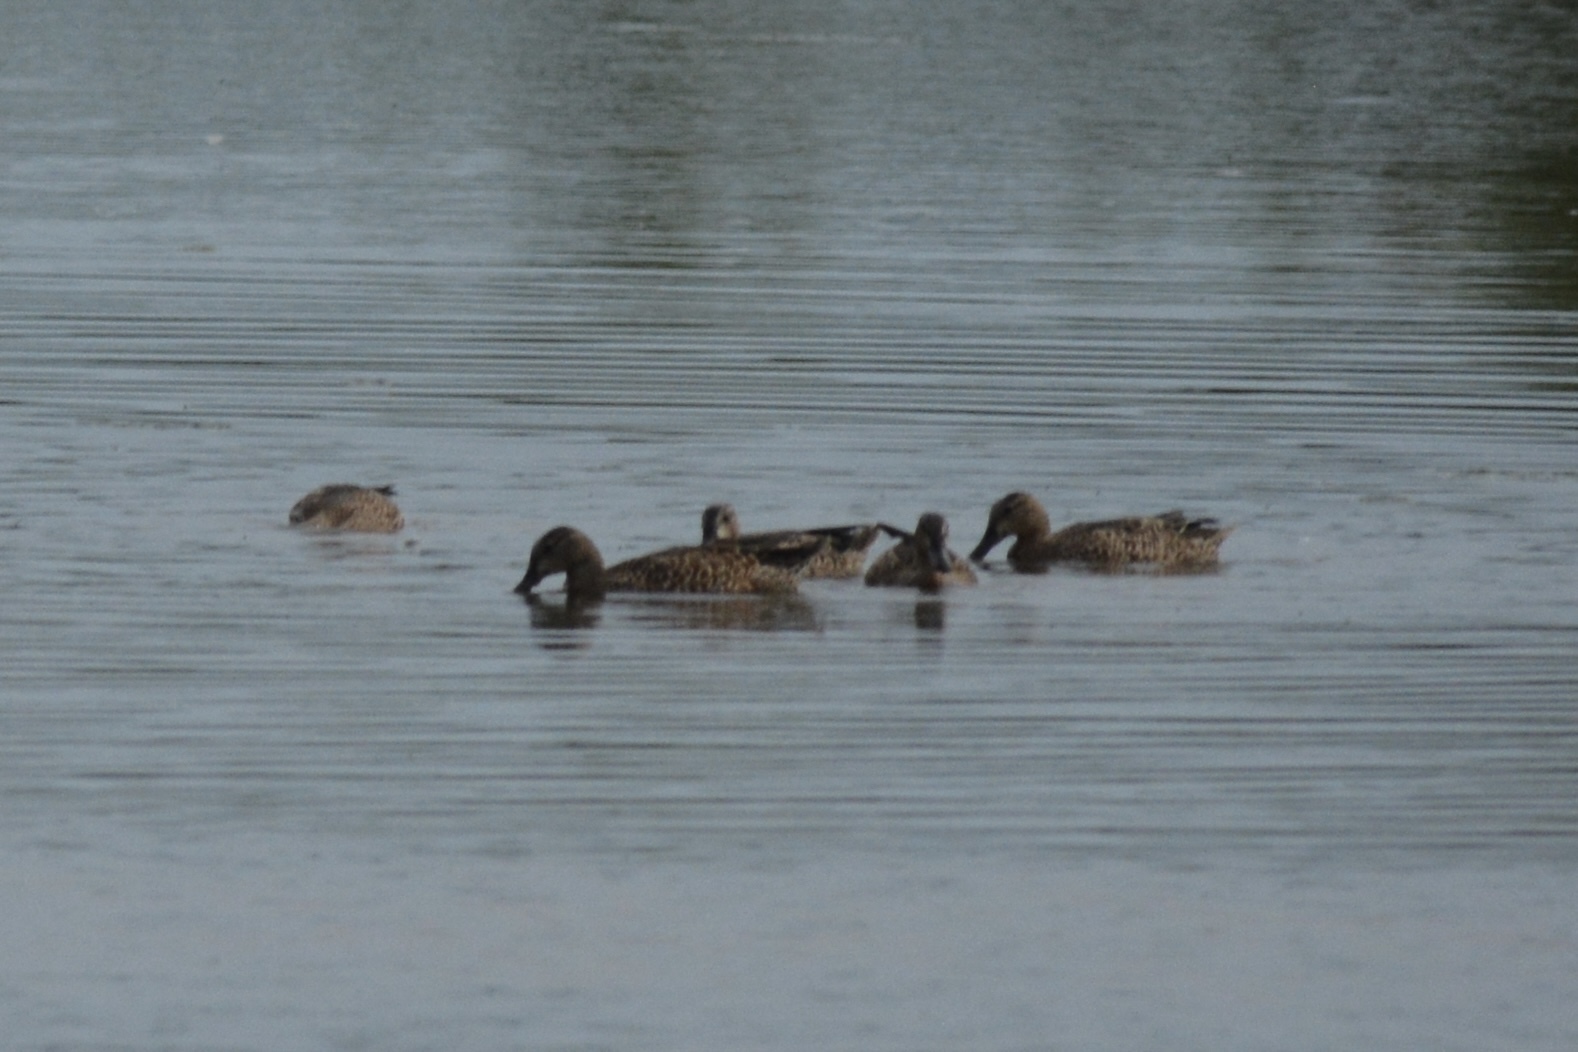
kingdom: Animalia
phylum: Chordata
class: Aves
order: Anseriformes
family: Anatidae
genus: Spatula
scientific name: Spatula discors
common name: Blue-winged teal
